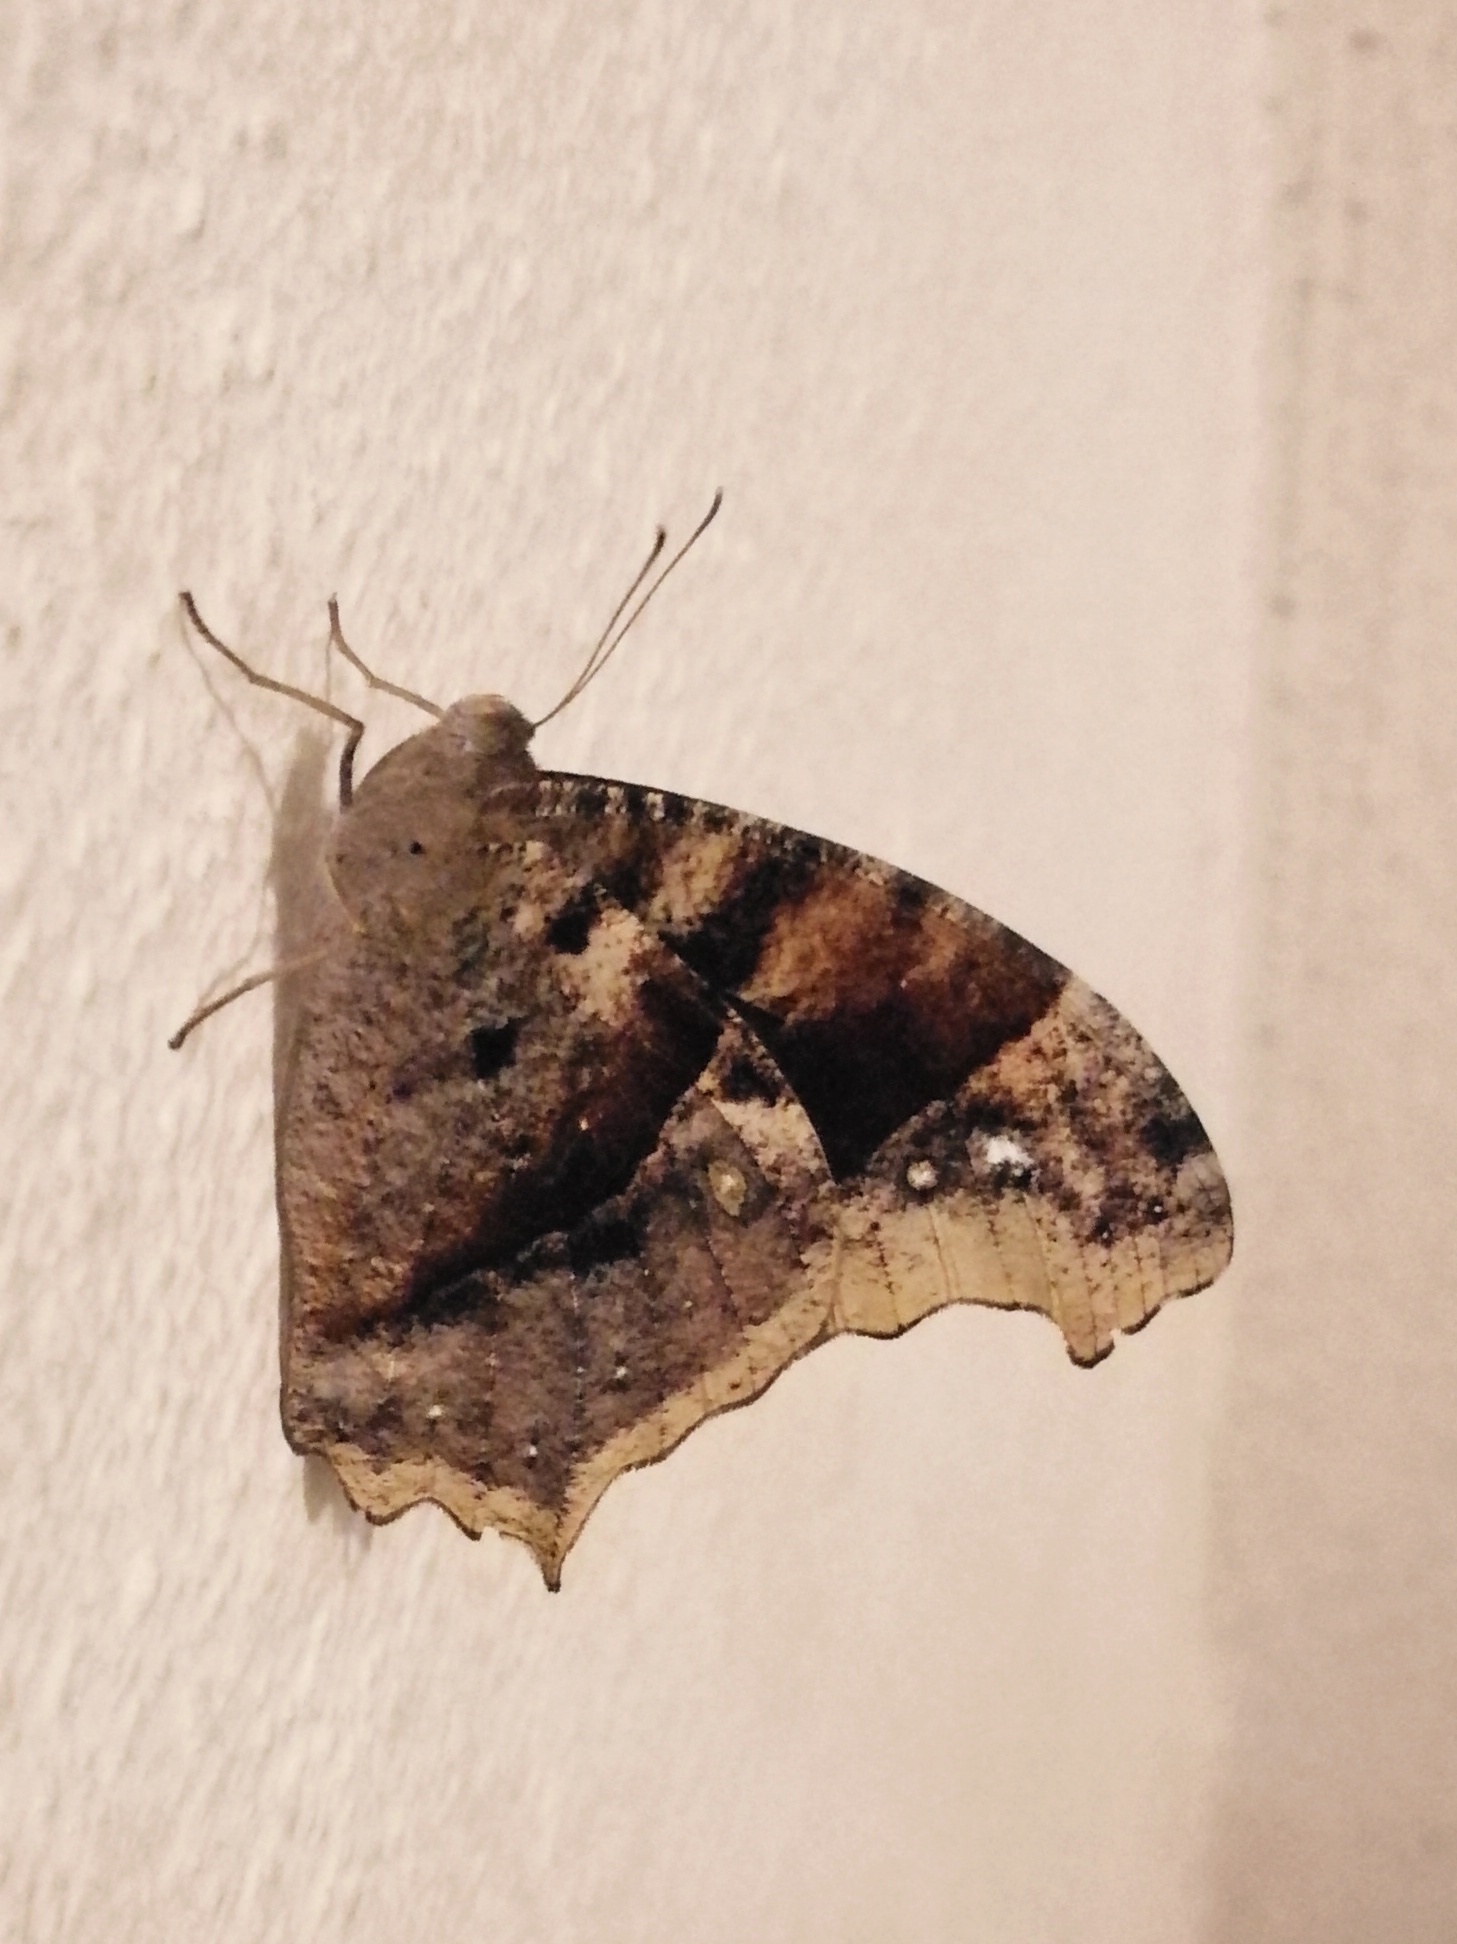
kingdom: Animalia
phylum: Arthropoda
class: Insecta
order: Lepidoptera
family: Nymphalidae
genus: Melanitis
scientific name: Melanitis leda
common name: Twilight brown
